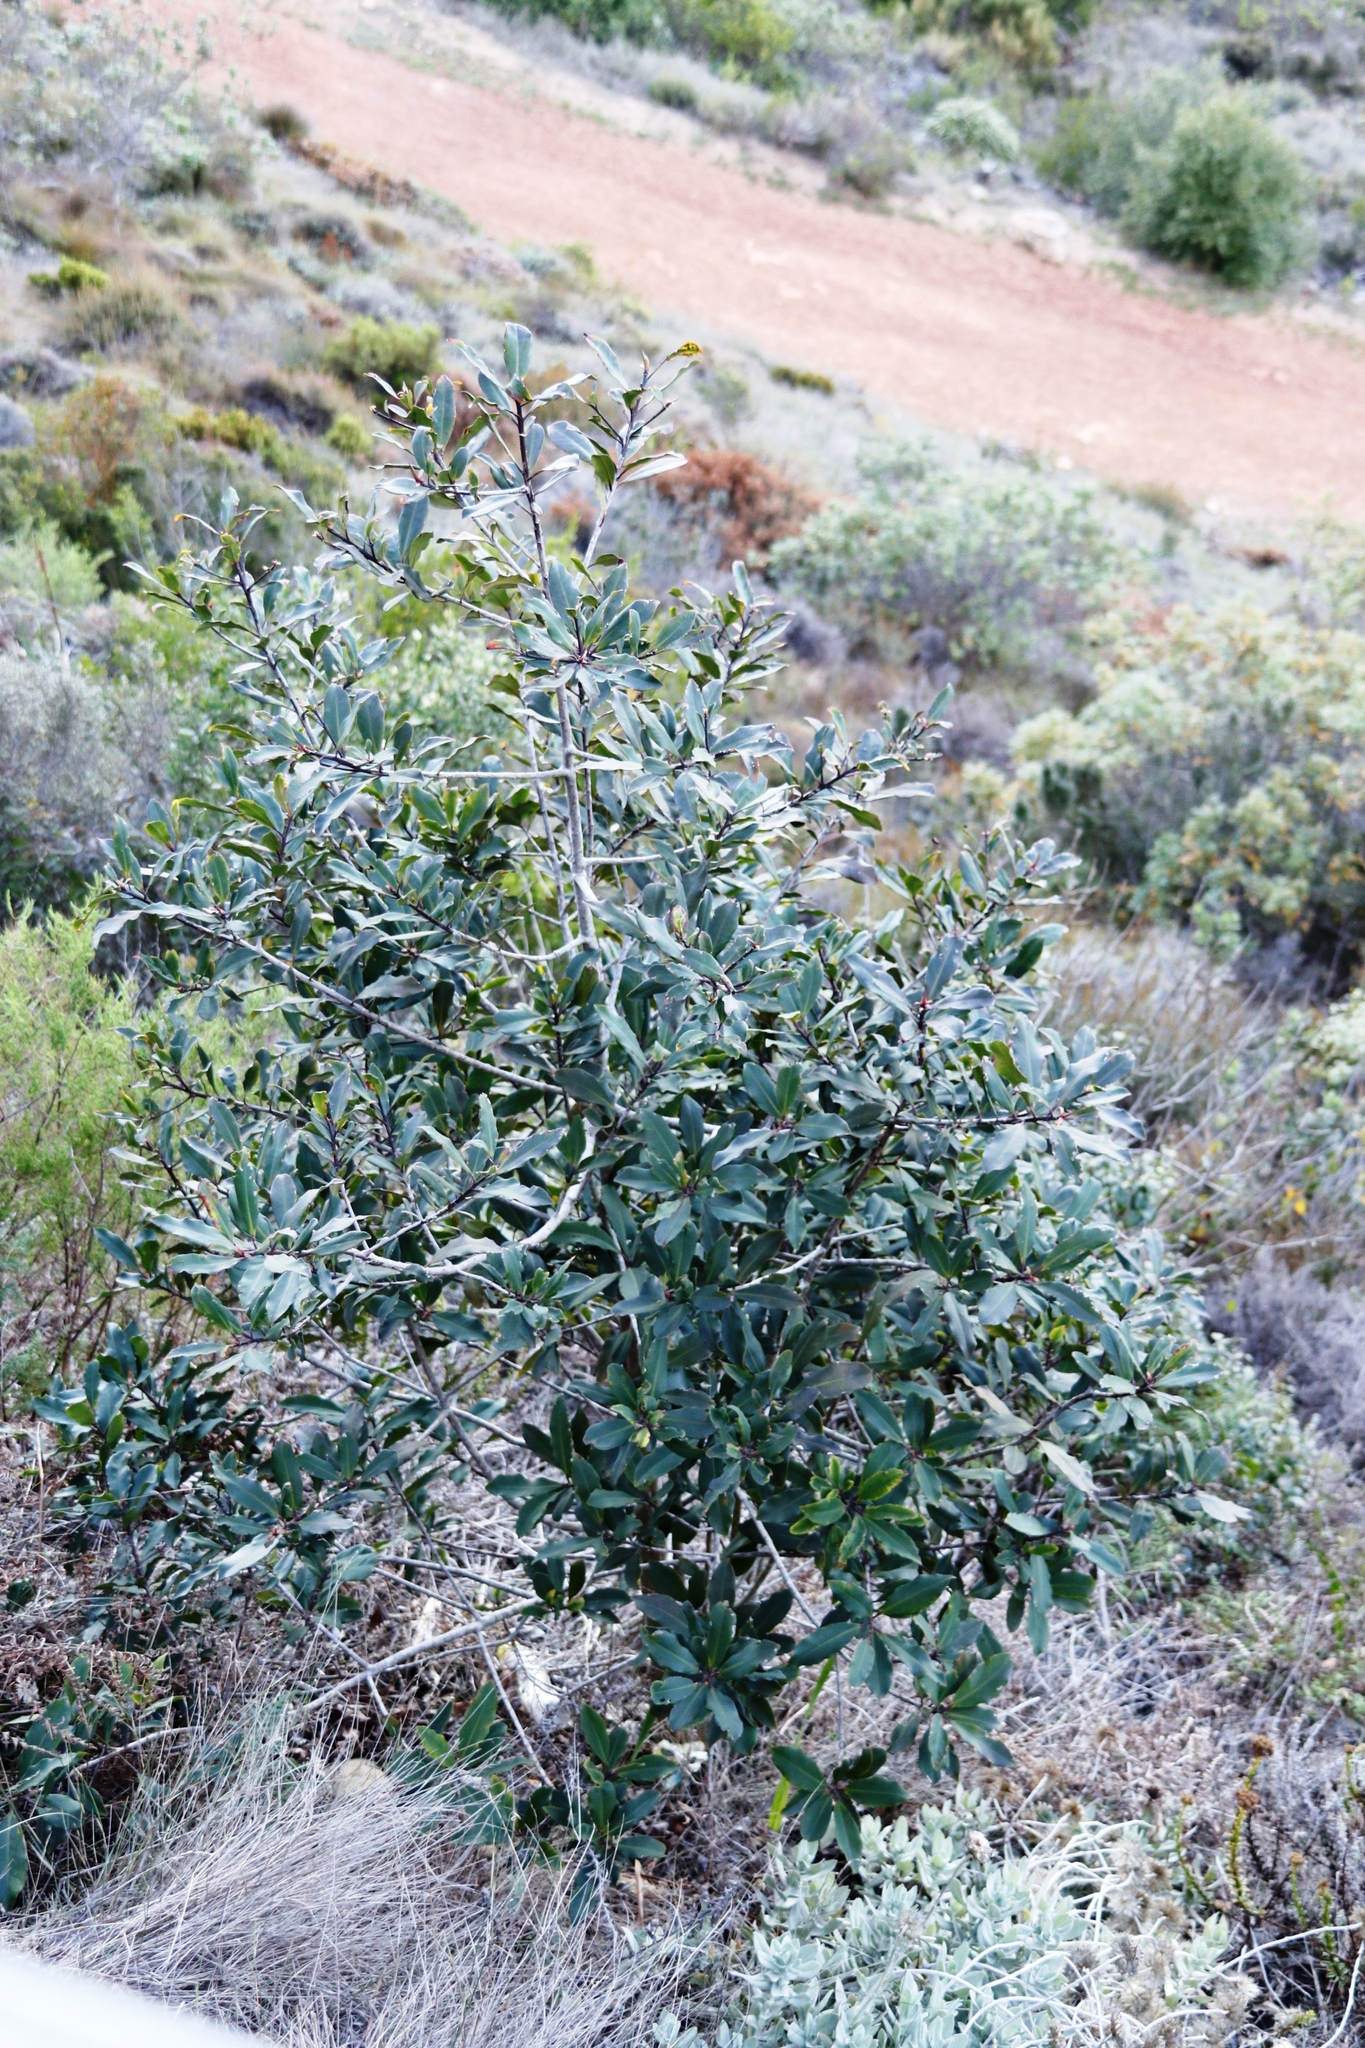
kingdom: Plantae
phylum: Tracheophyta
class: Magnoliopsida
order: Ericales
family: Primulaceae
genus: Myrsine
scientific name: Myrsine melanophloeos
